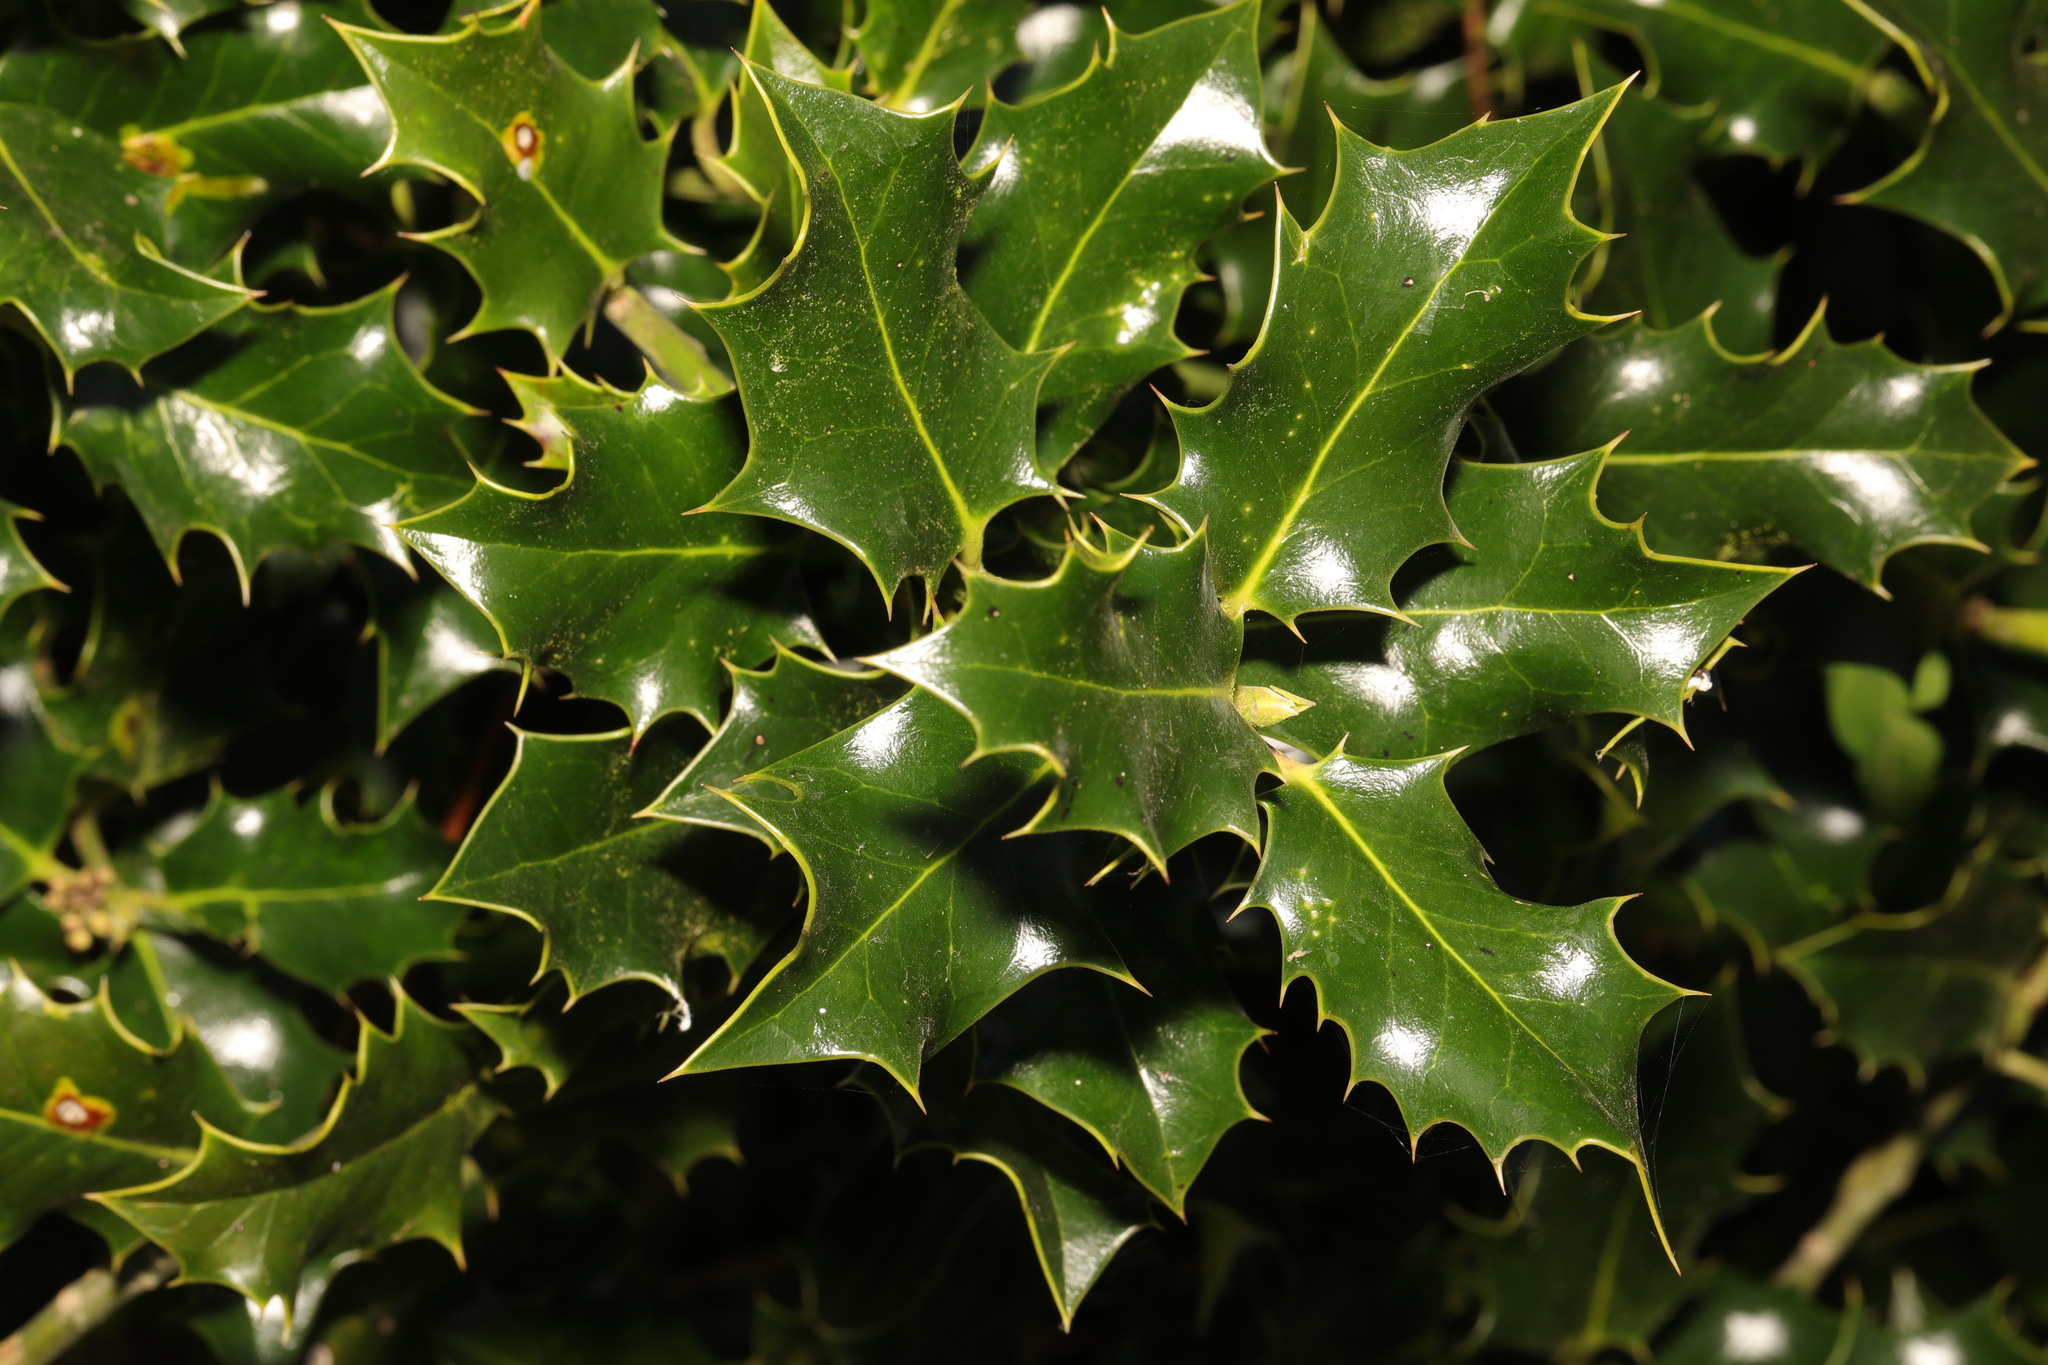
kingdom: Plantae
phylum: Tracheophyta
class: Magnoliopsida
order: Aquifoliales
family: Aquifoliaceae
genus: Ilex
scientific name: Ilex aquifolium
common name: English holly
